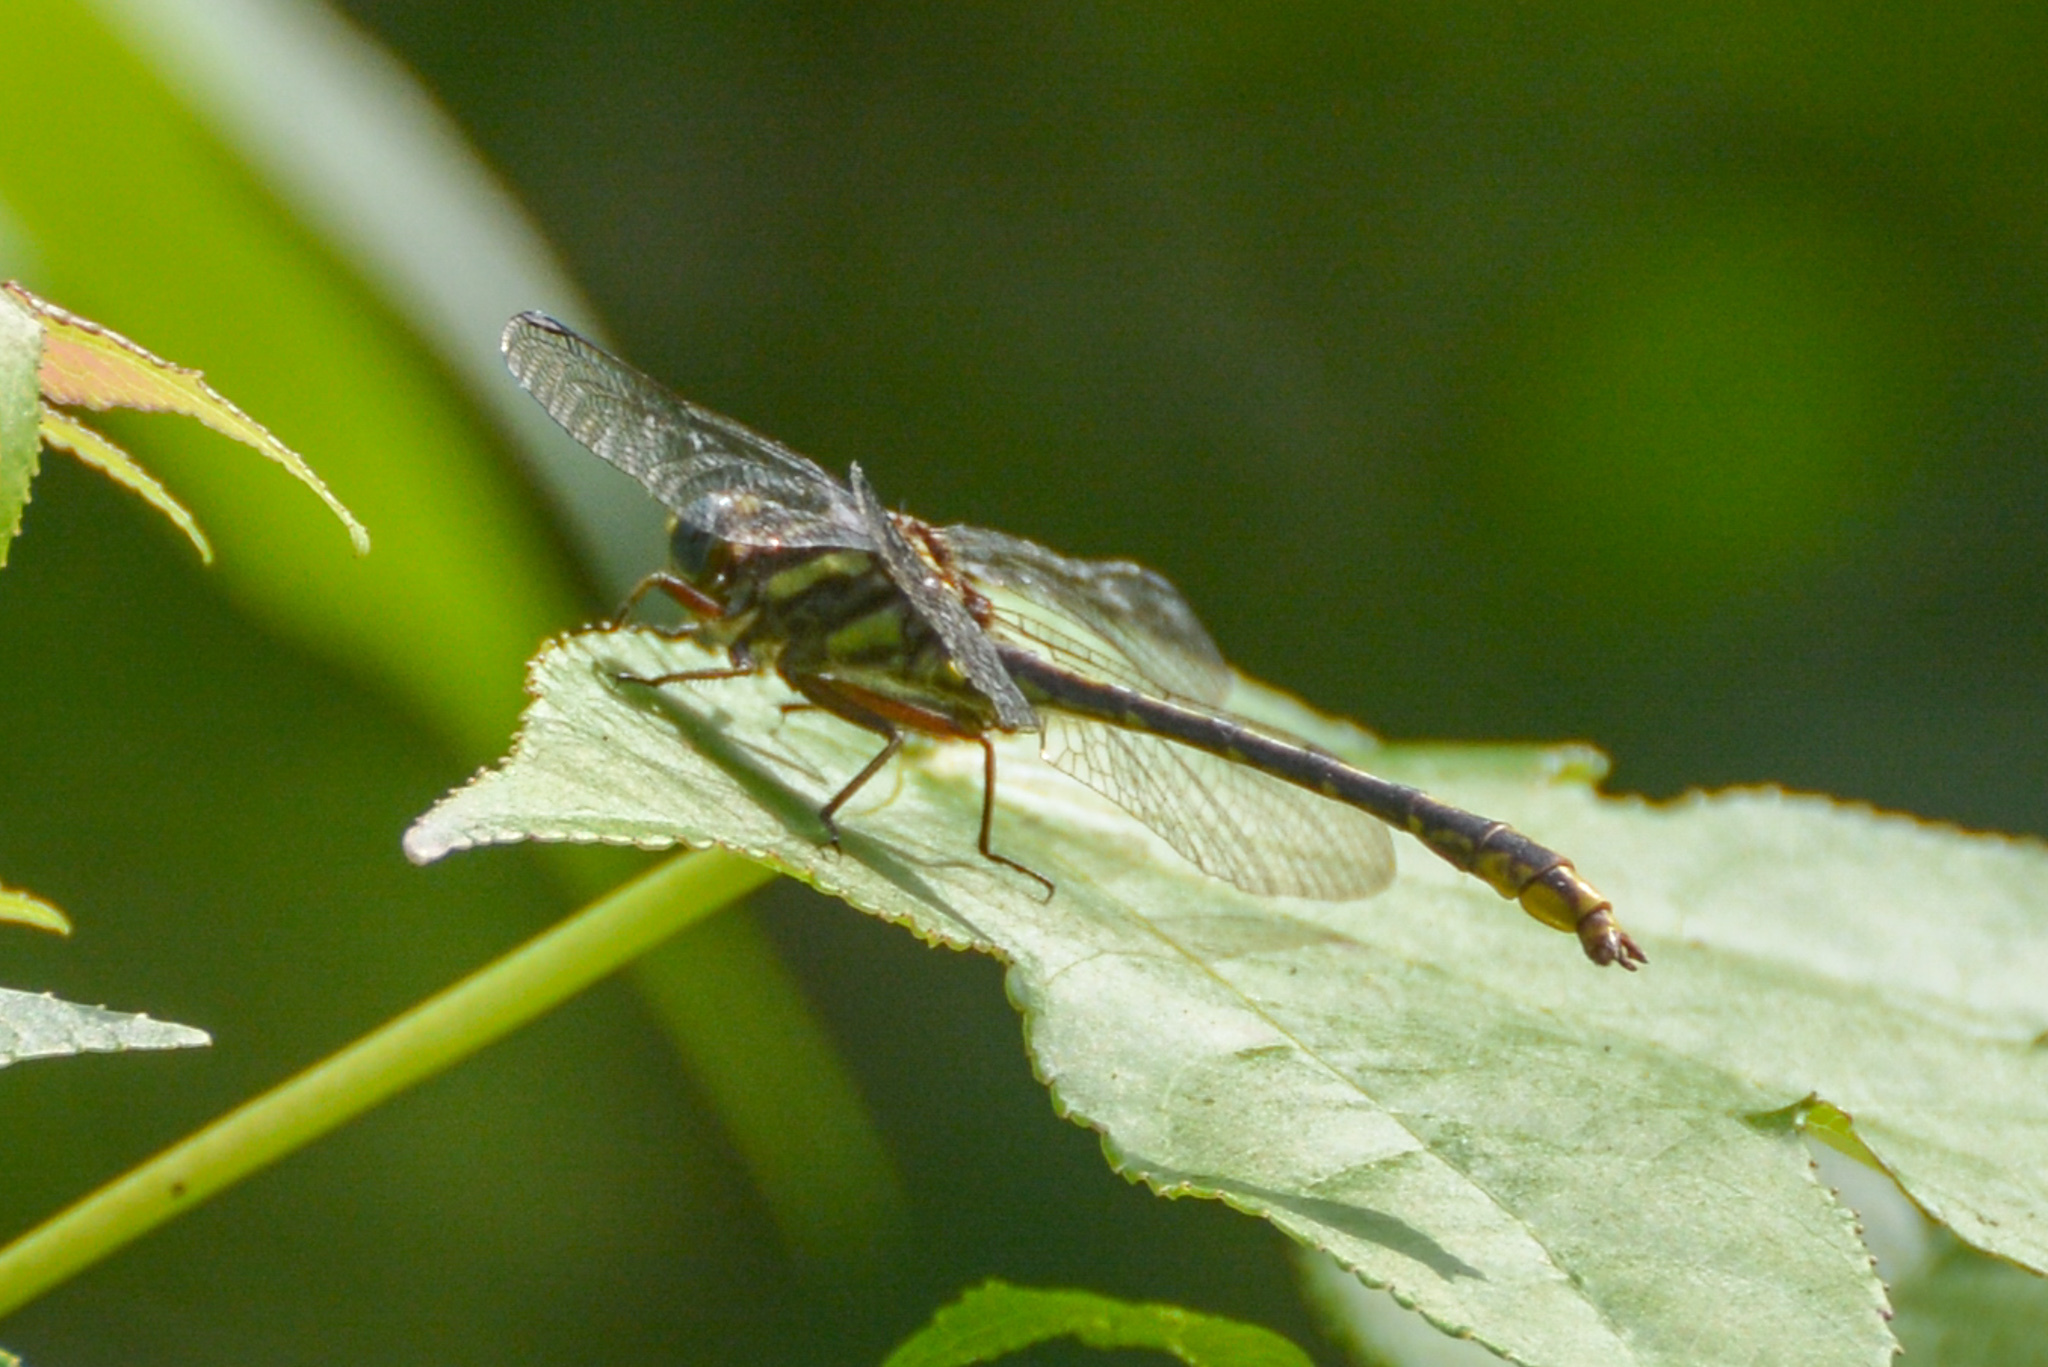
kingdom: Animalia
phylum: Arthropoda
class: Insecta
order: Odonata
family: Gomphidae
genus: Phanogomphus
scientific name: Phanogomphus exilis
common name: Lancet clubtail
